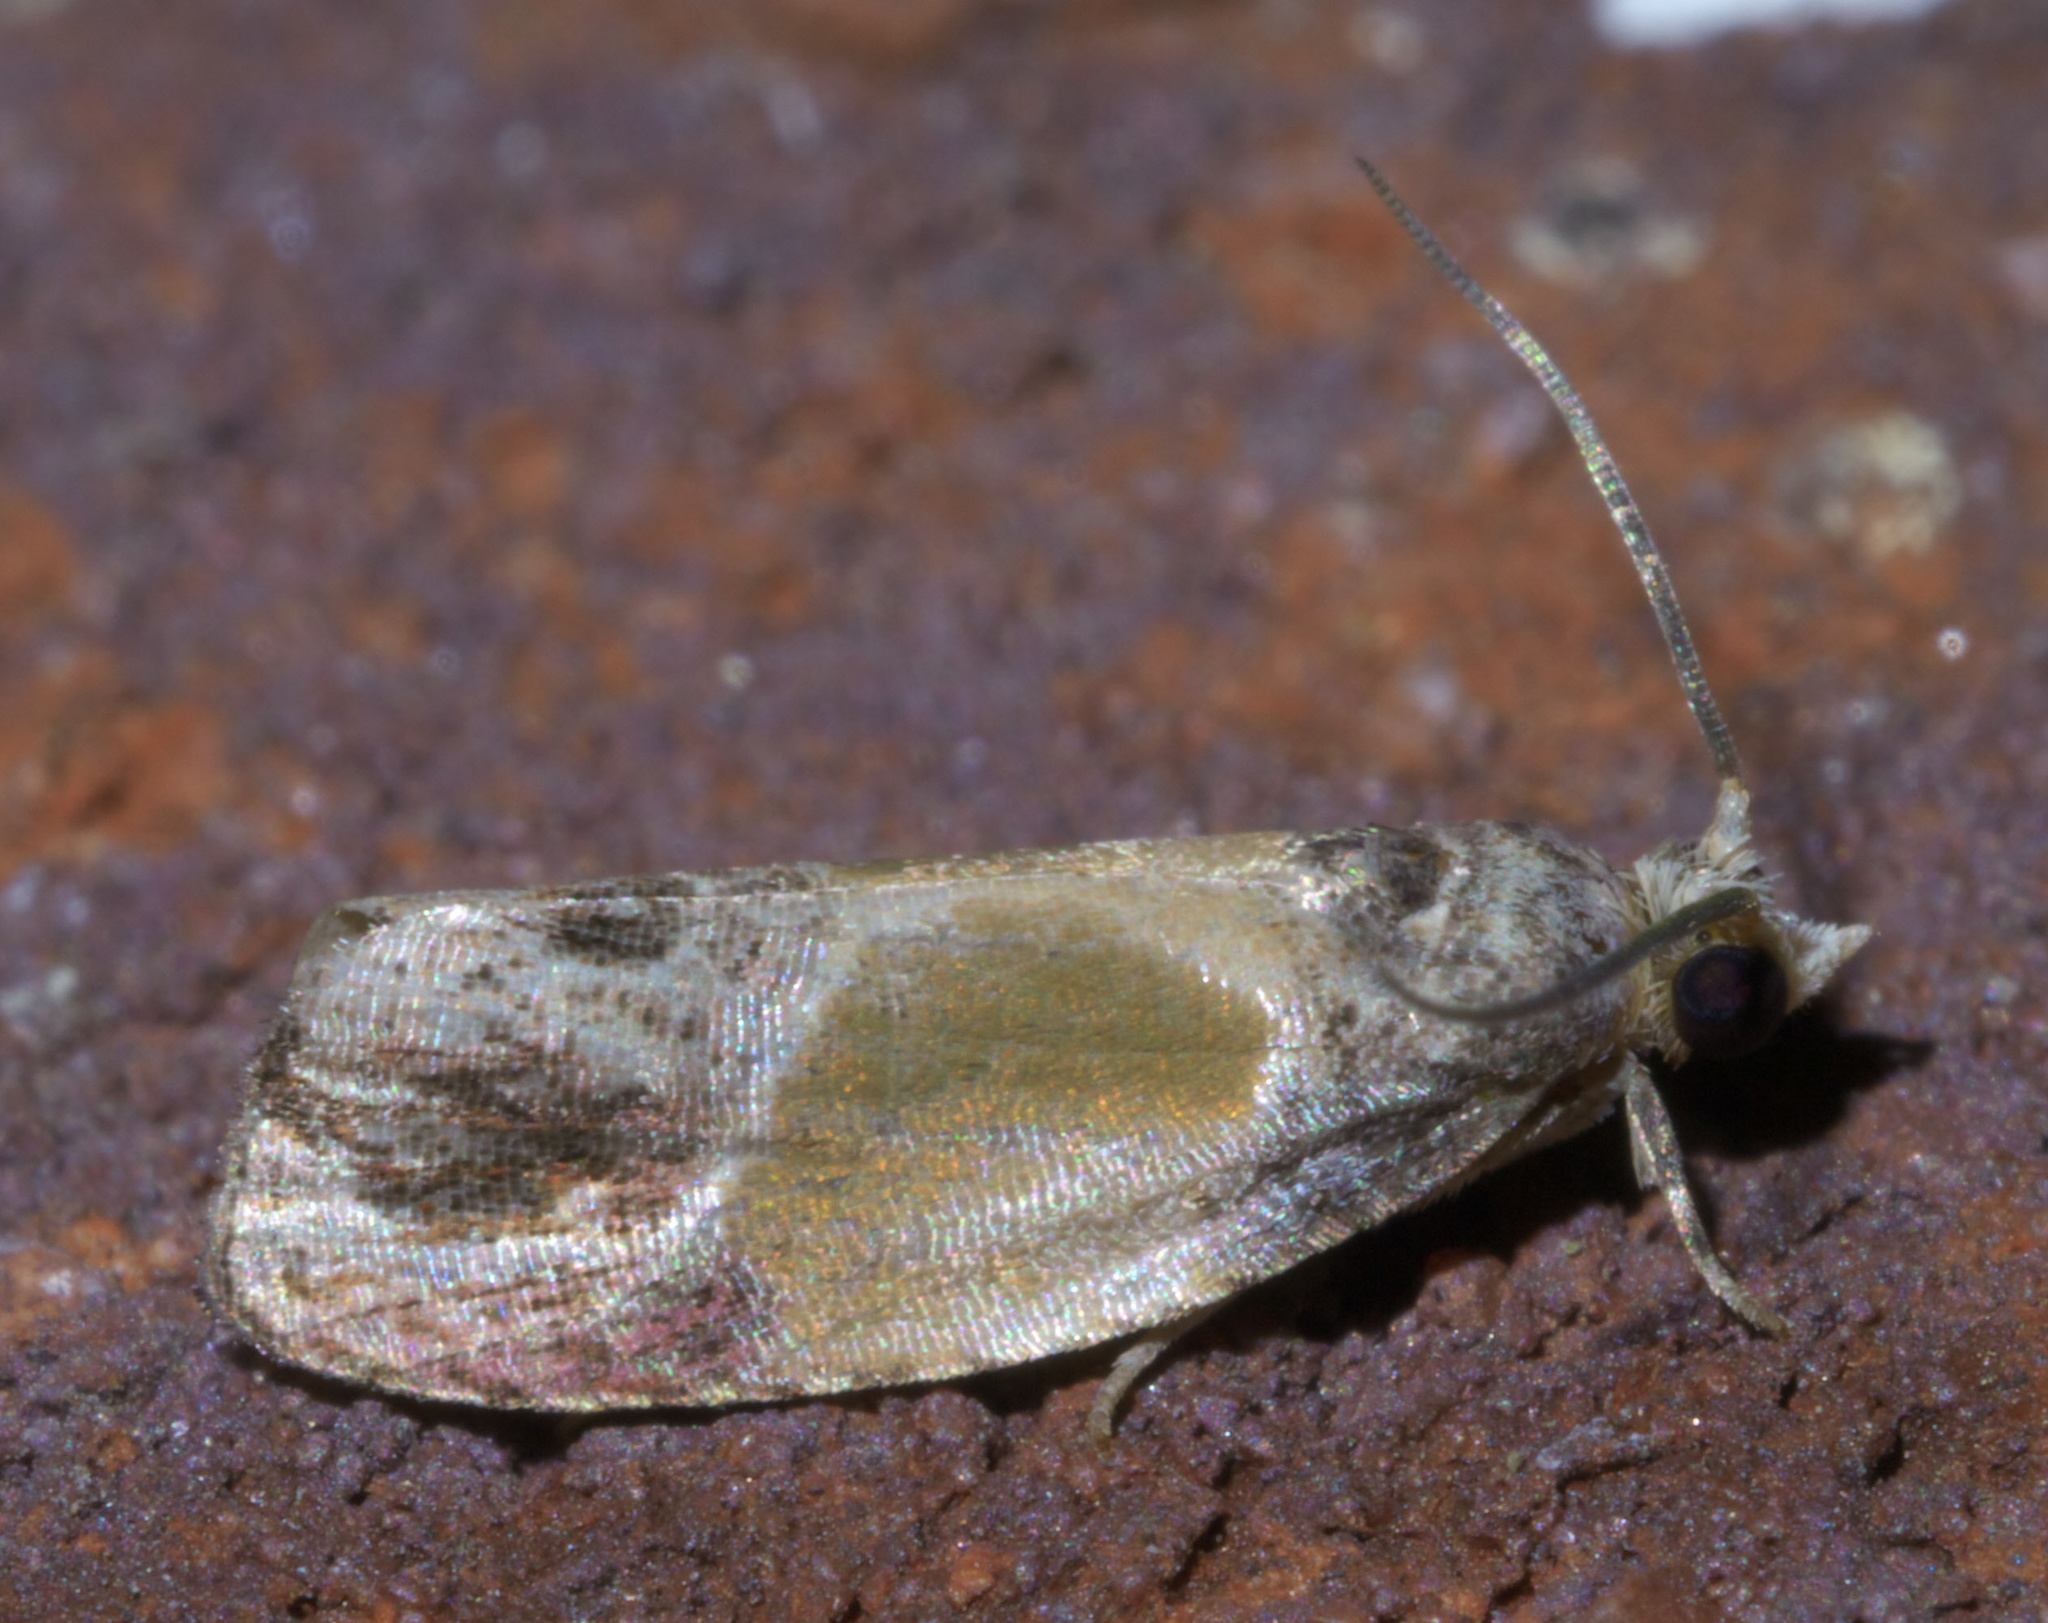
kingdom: Animalia
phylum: Arthropoda
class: Insecta
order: Lepidoptera
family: Tortricidae
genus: Eumarozia
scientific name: Eumarozia malachitana
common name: Sculptured moth
